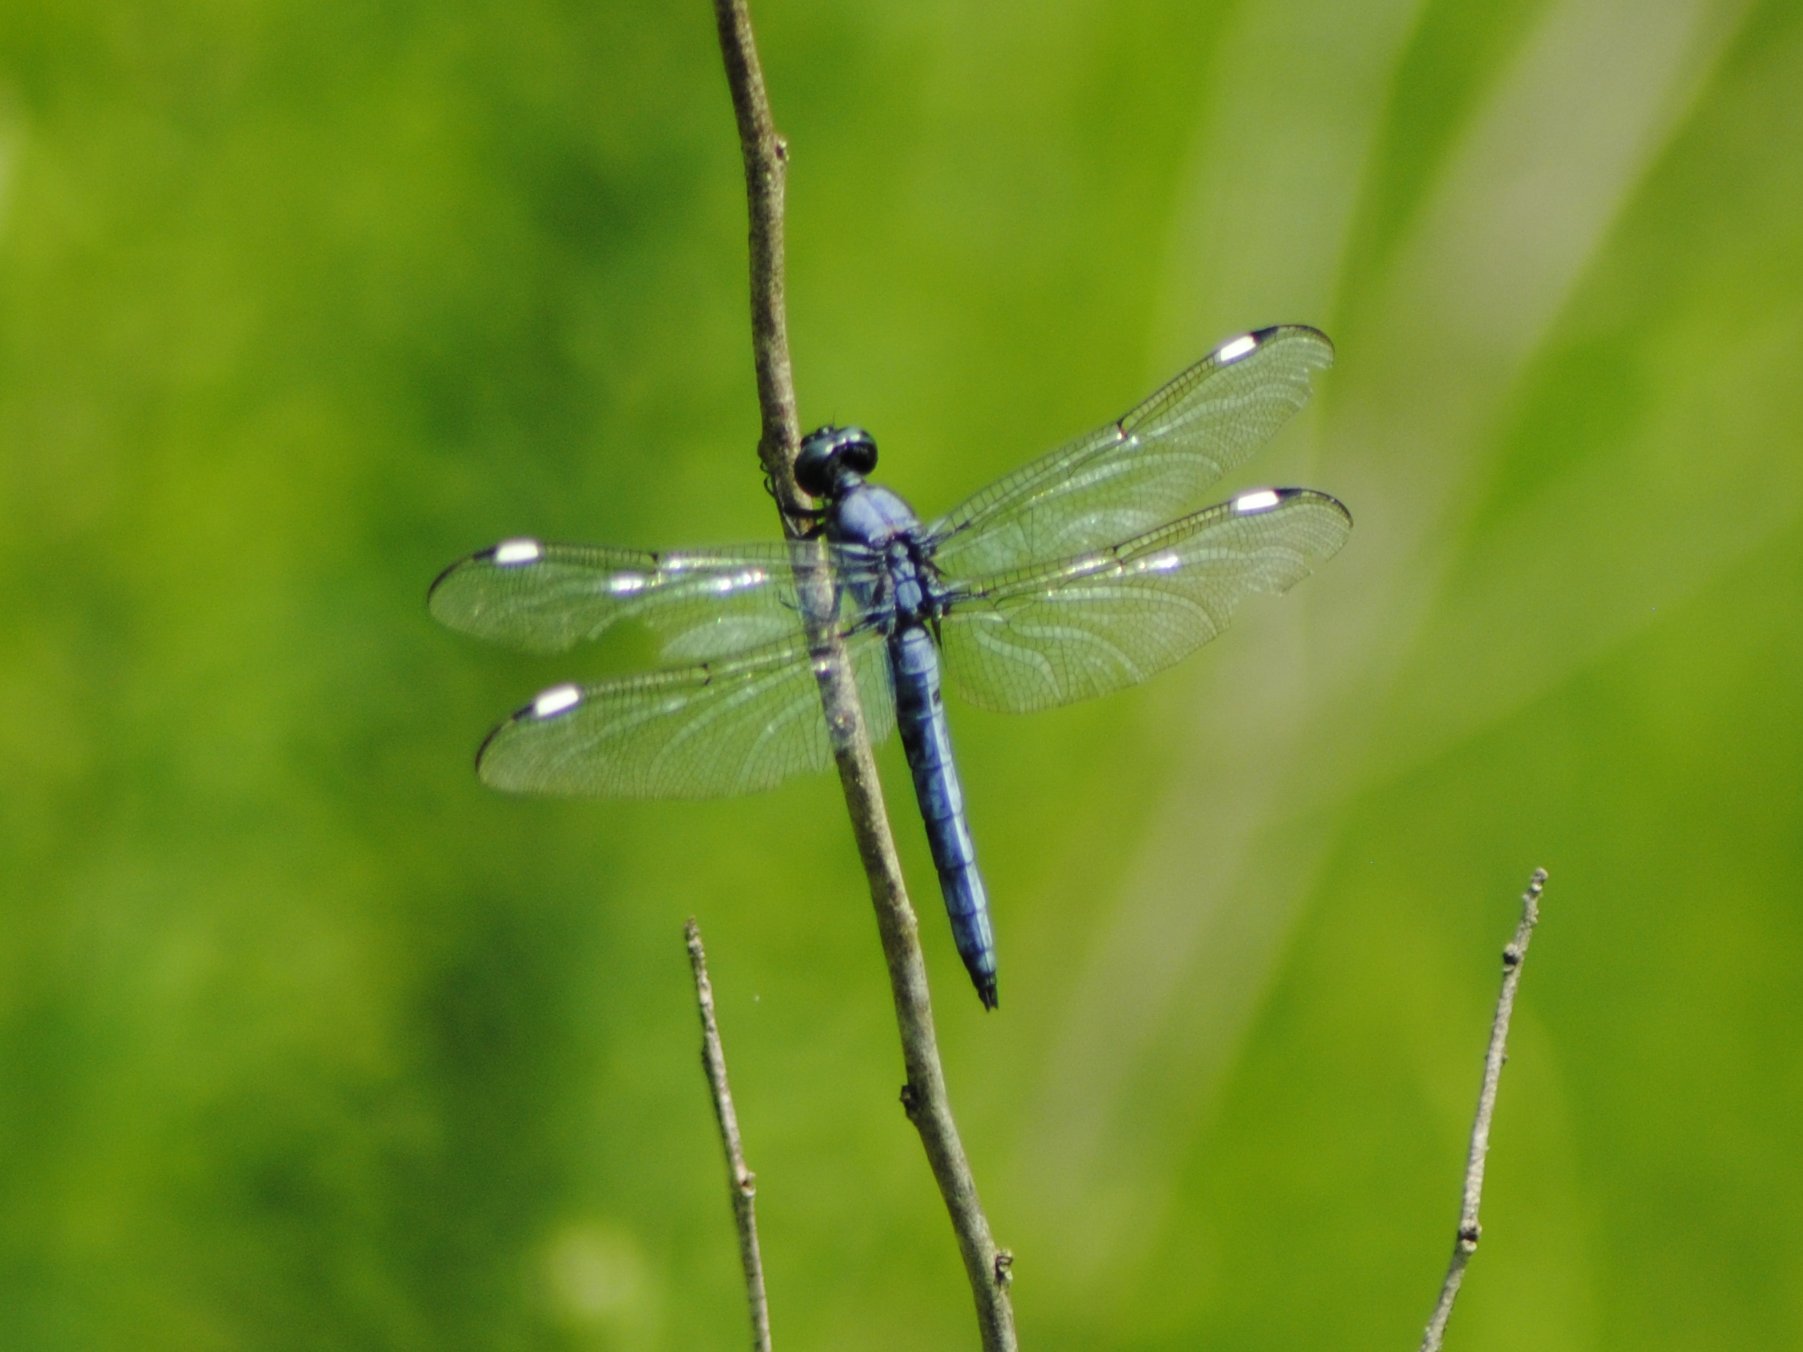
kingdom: Animalia
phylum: Arthropoda
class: Insecta
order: Odonata
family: Libellulidae
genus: Libellula
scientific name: Libellula cyanea
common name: Spangled skimmer
